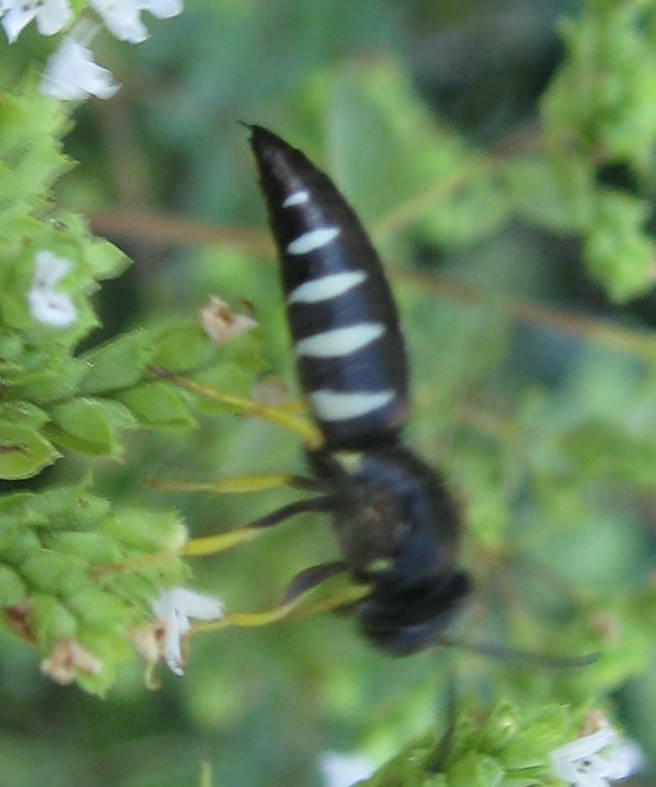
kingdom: Animalia
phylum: Arthropoda
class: Insecta
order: Hymenoptera
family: Crabronidae
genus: Bicyrtes
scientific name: Bicyrtes quadrifasciatus
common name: Four-banded stink bug hunter wasp
